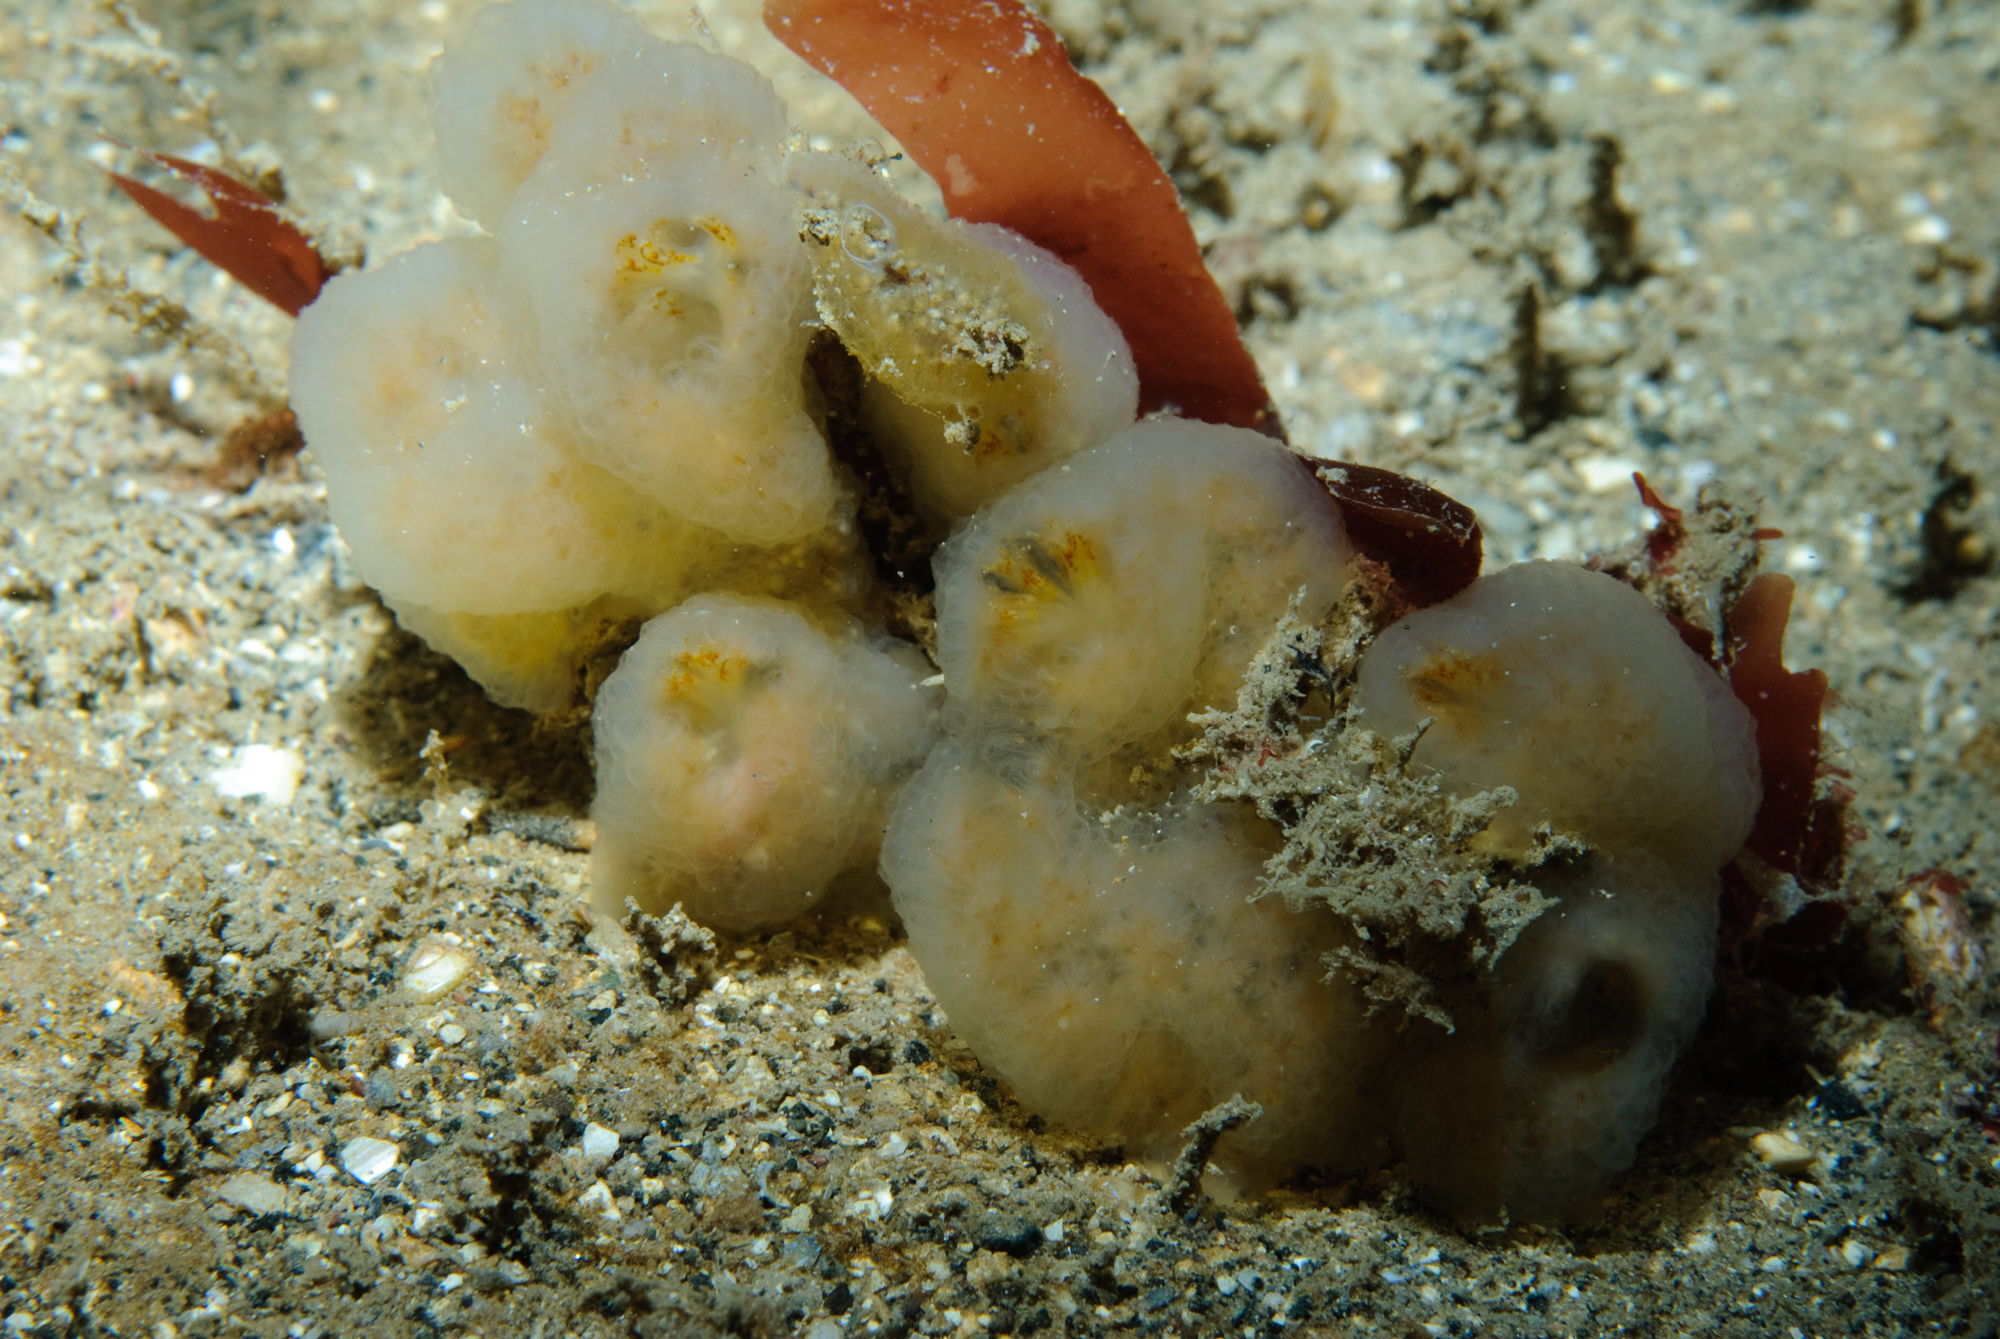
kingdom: Animalia
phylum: Chordata
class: Ascidiacea
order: Aplousobranchia
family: Polyclinidae
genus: Aplidium
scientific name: Aplidium pallidum
